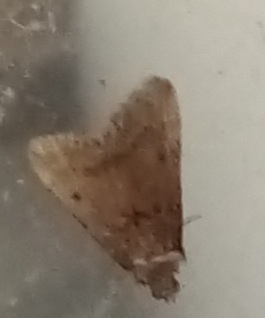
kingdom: Animalia
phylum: Arthropoda
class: Insecta
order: Lepidoptera
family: Pyralidae
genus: Bostra
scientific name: Bostra obsoletalis
